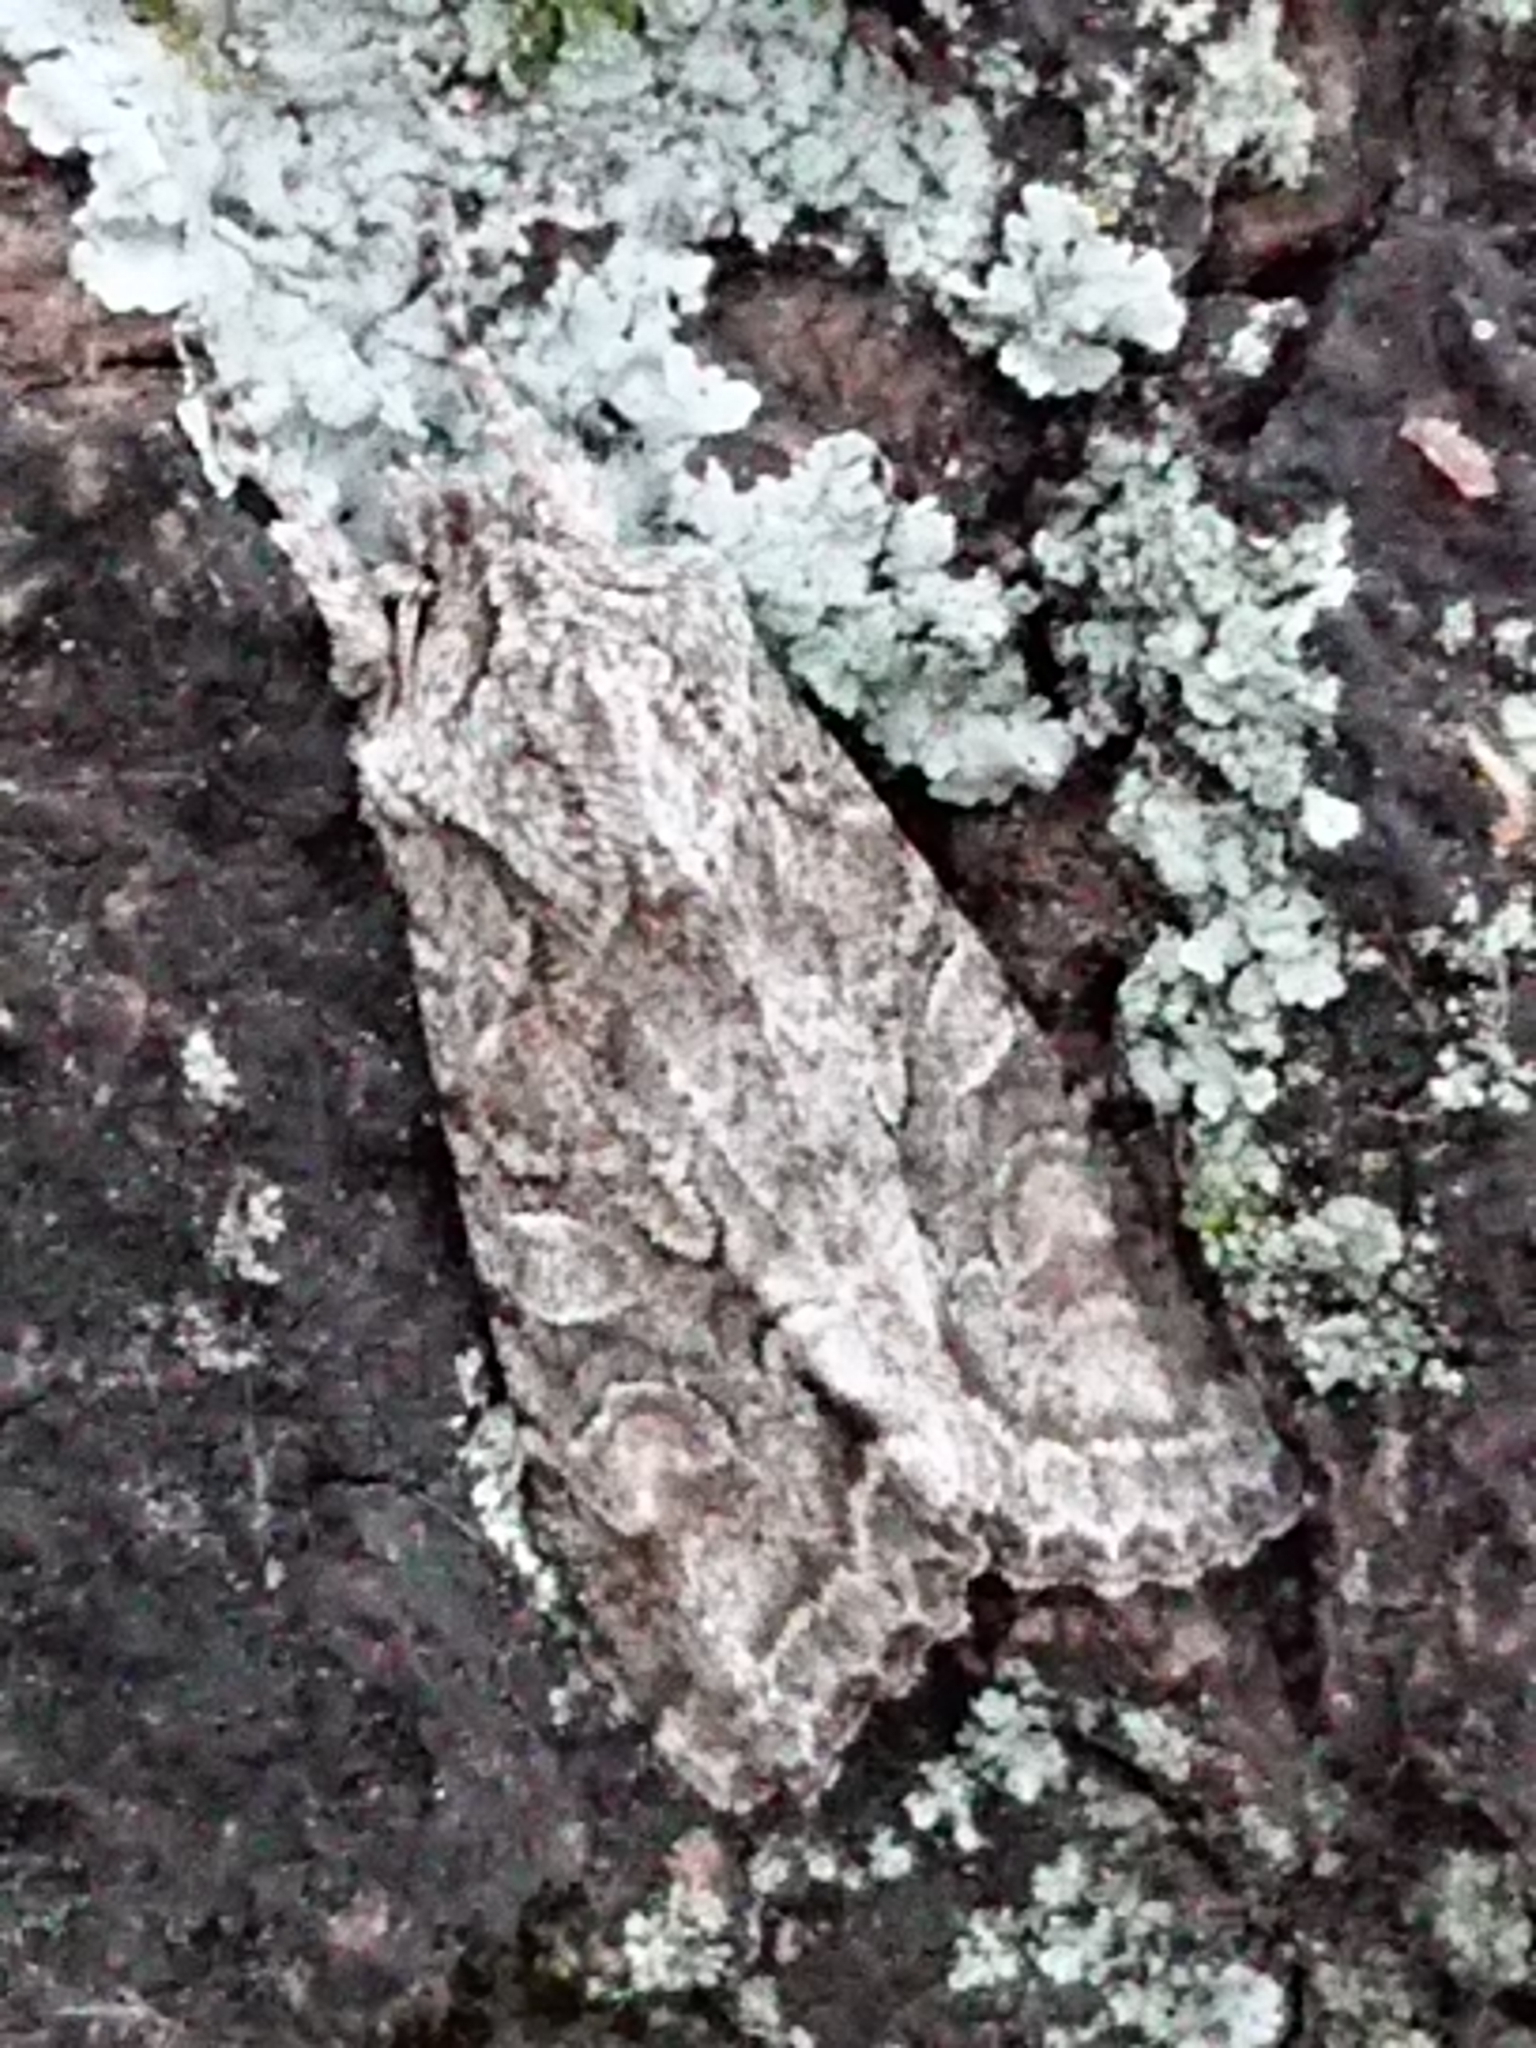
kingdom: Animalia
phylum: Arthropoda
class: Insecta
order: Lepidoptera
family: Noctuidae
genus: Ichneutica
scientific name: Ichneutica mutans
